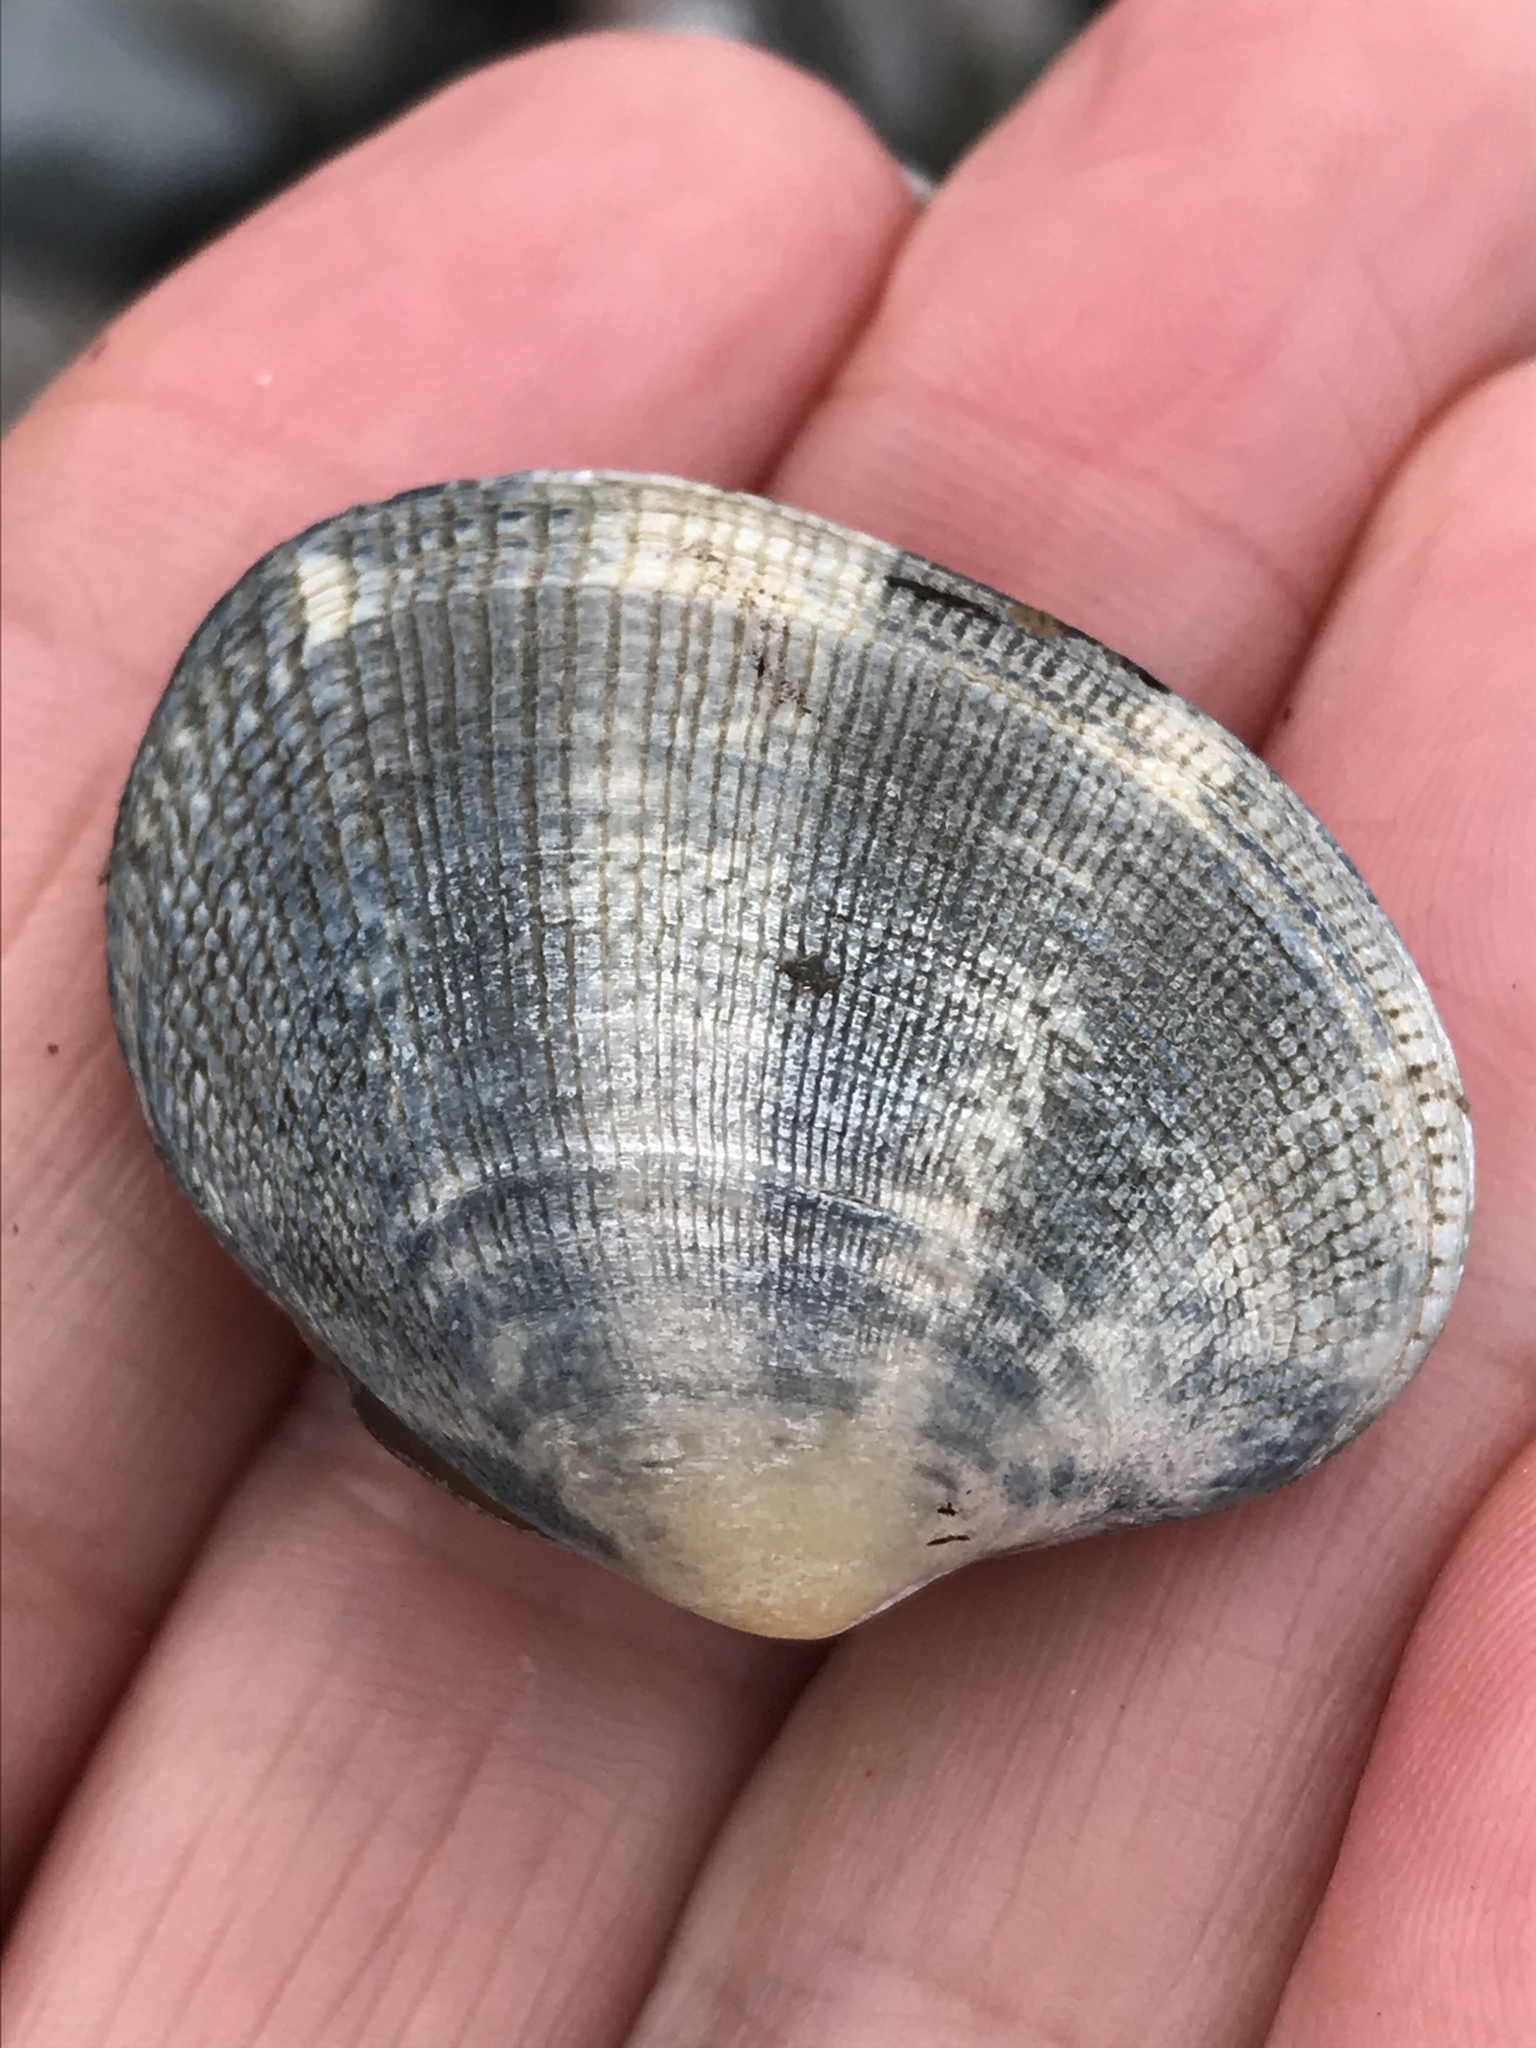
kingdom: Animalia
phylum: Mollusca
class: Bivalvia
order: Venerida
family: Veneridae
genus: Ruditapes
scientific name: Ruditapes philippinarum
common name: Manila clam
